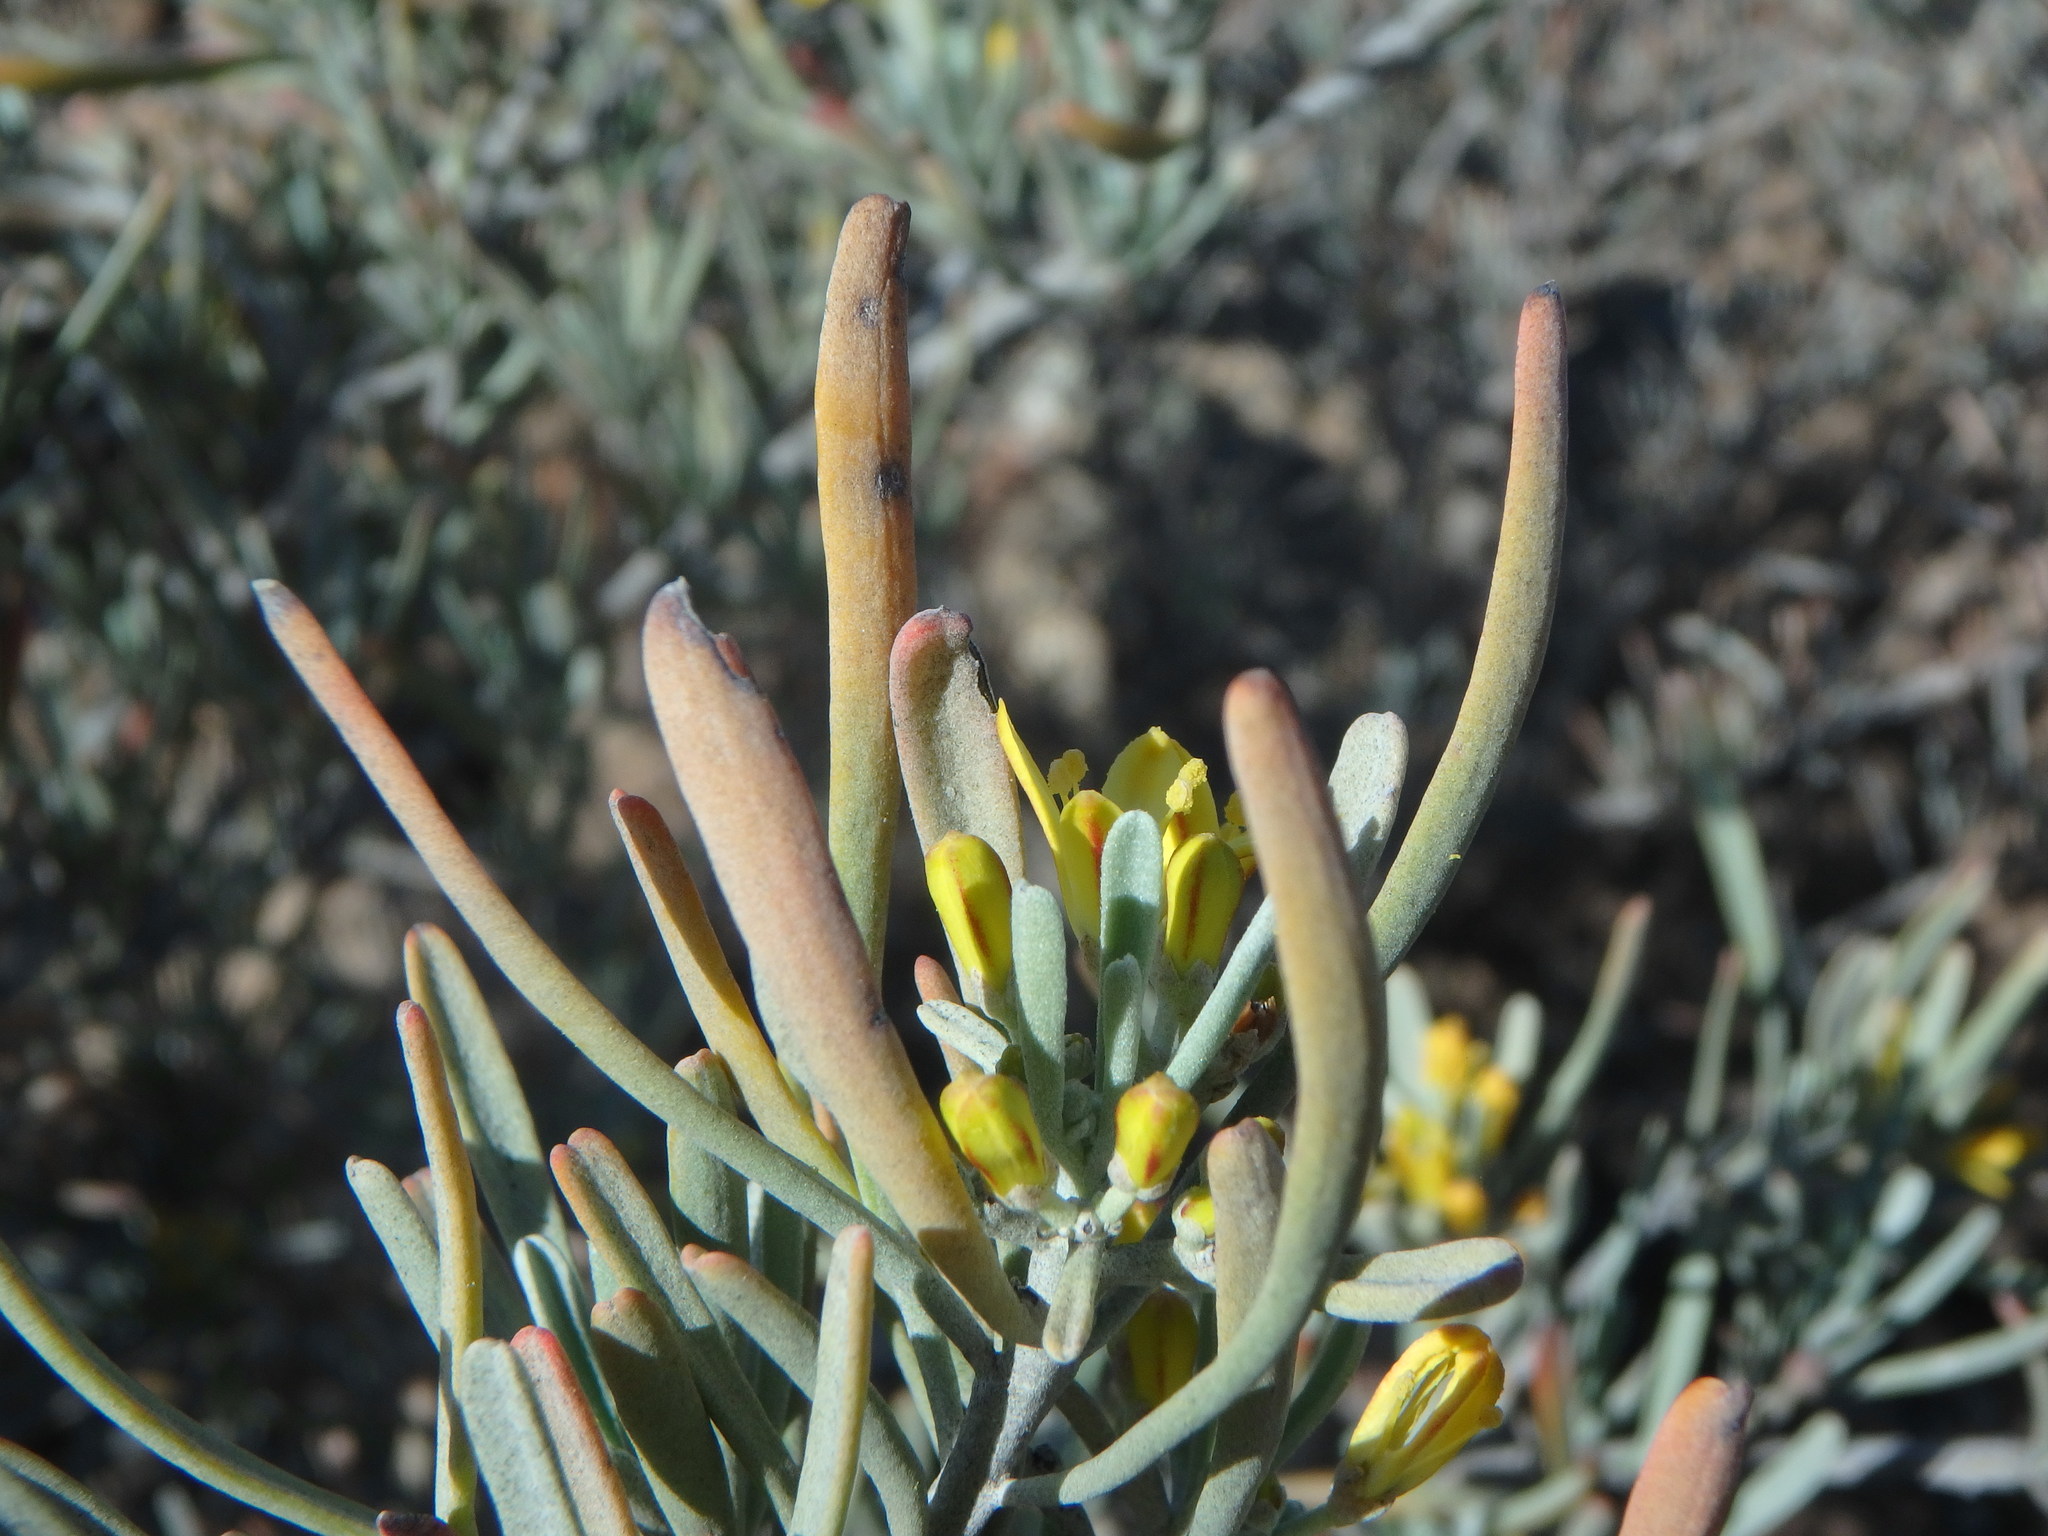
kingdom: Plantae
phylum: Tracheophyta
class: Magnoliopsida
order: Sapindales
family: Rutaceae
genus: Cneorum
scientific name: Cneorum pulverulentum
